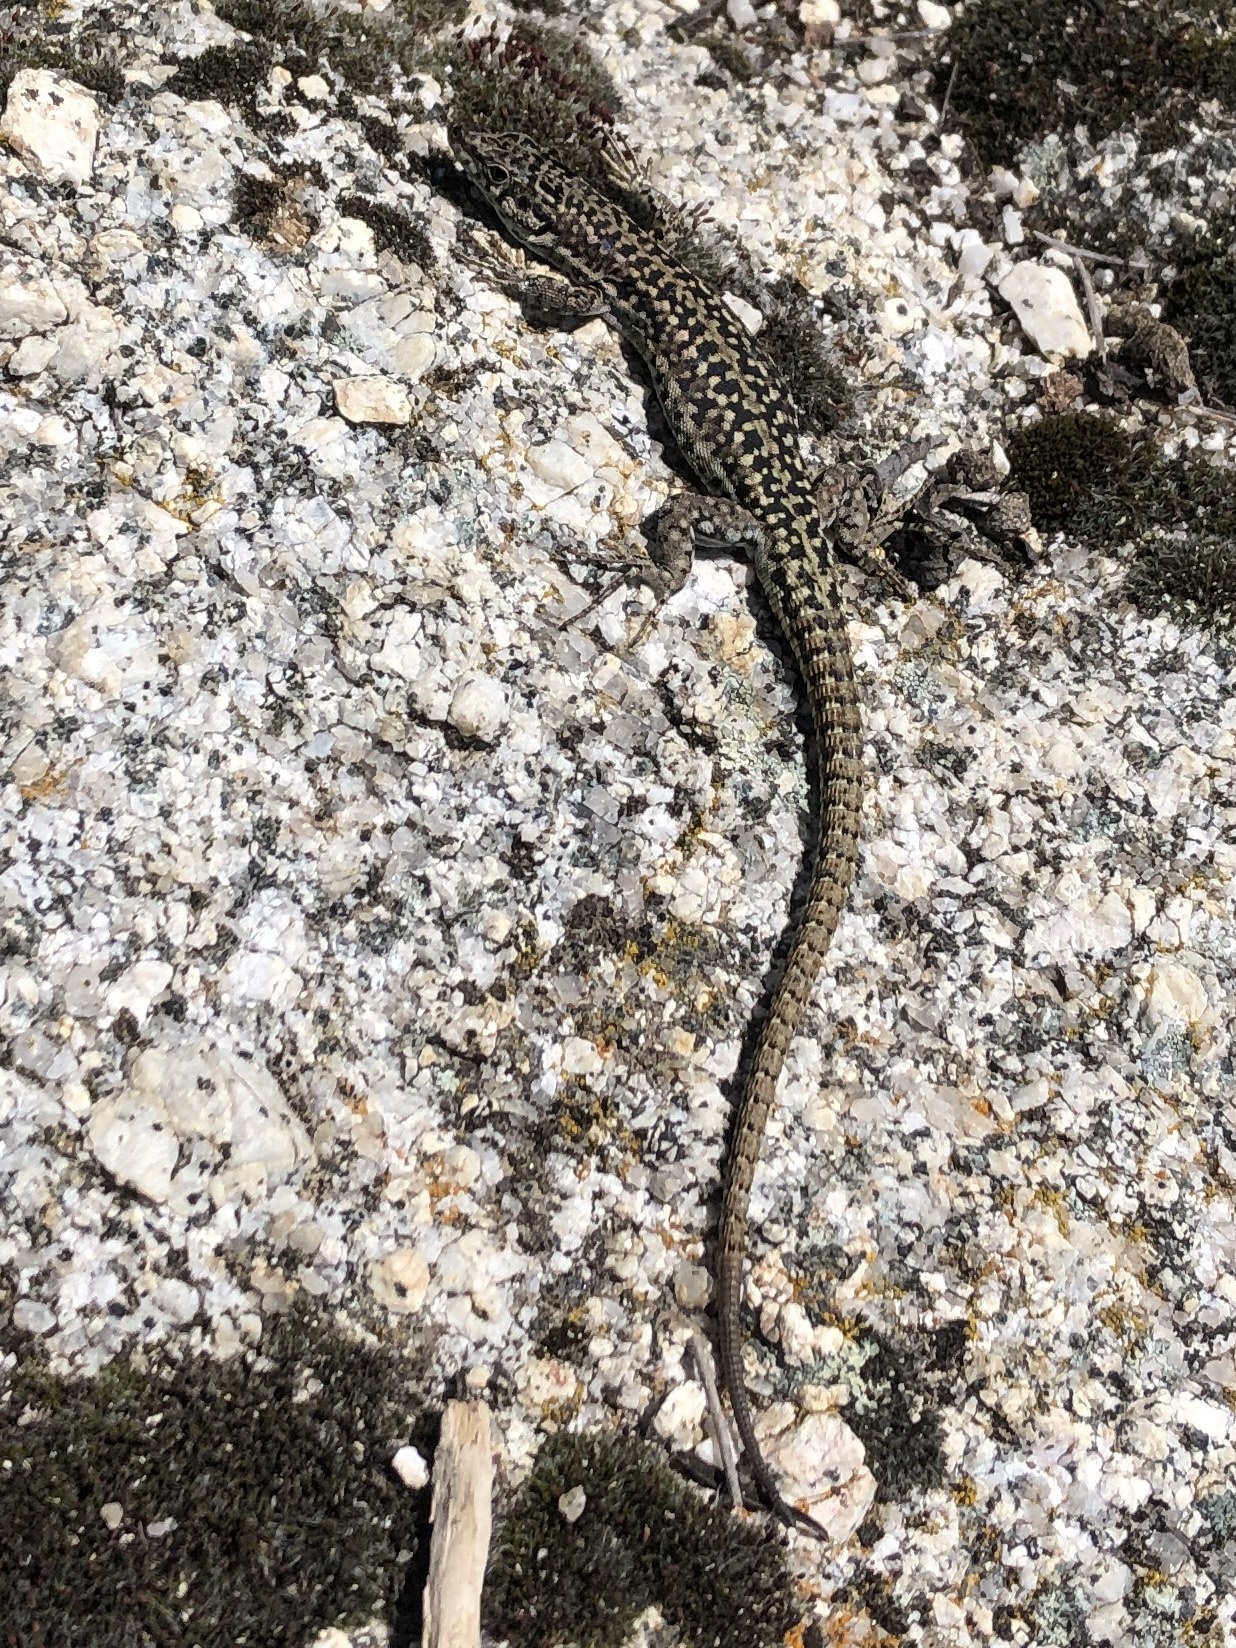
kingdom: Animalia
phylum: Chordata
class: Squamata
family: Lacertidae
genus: Podarcis
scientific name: Podarcis guadarramae
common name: Guadarrama wall lizard
